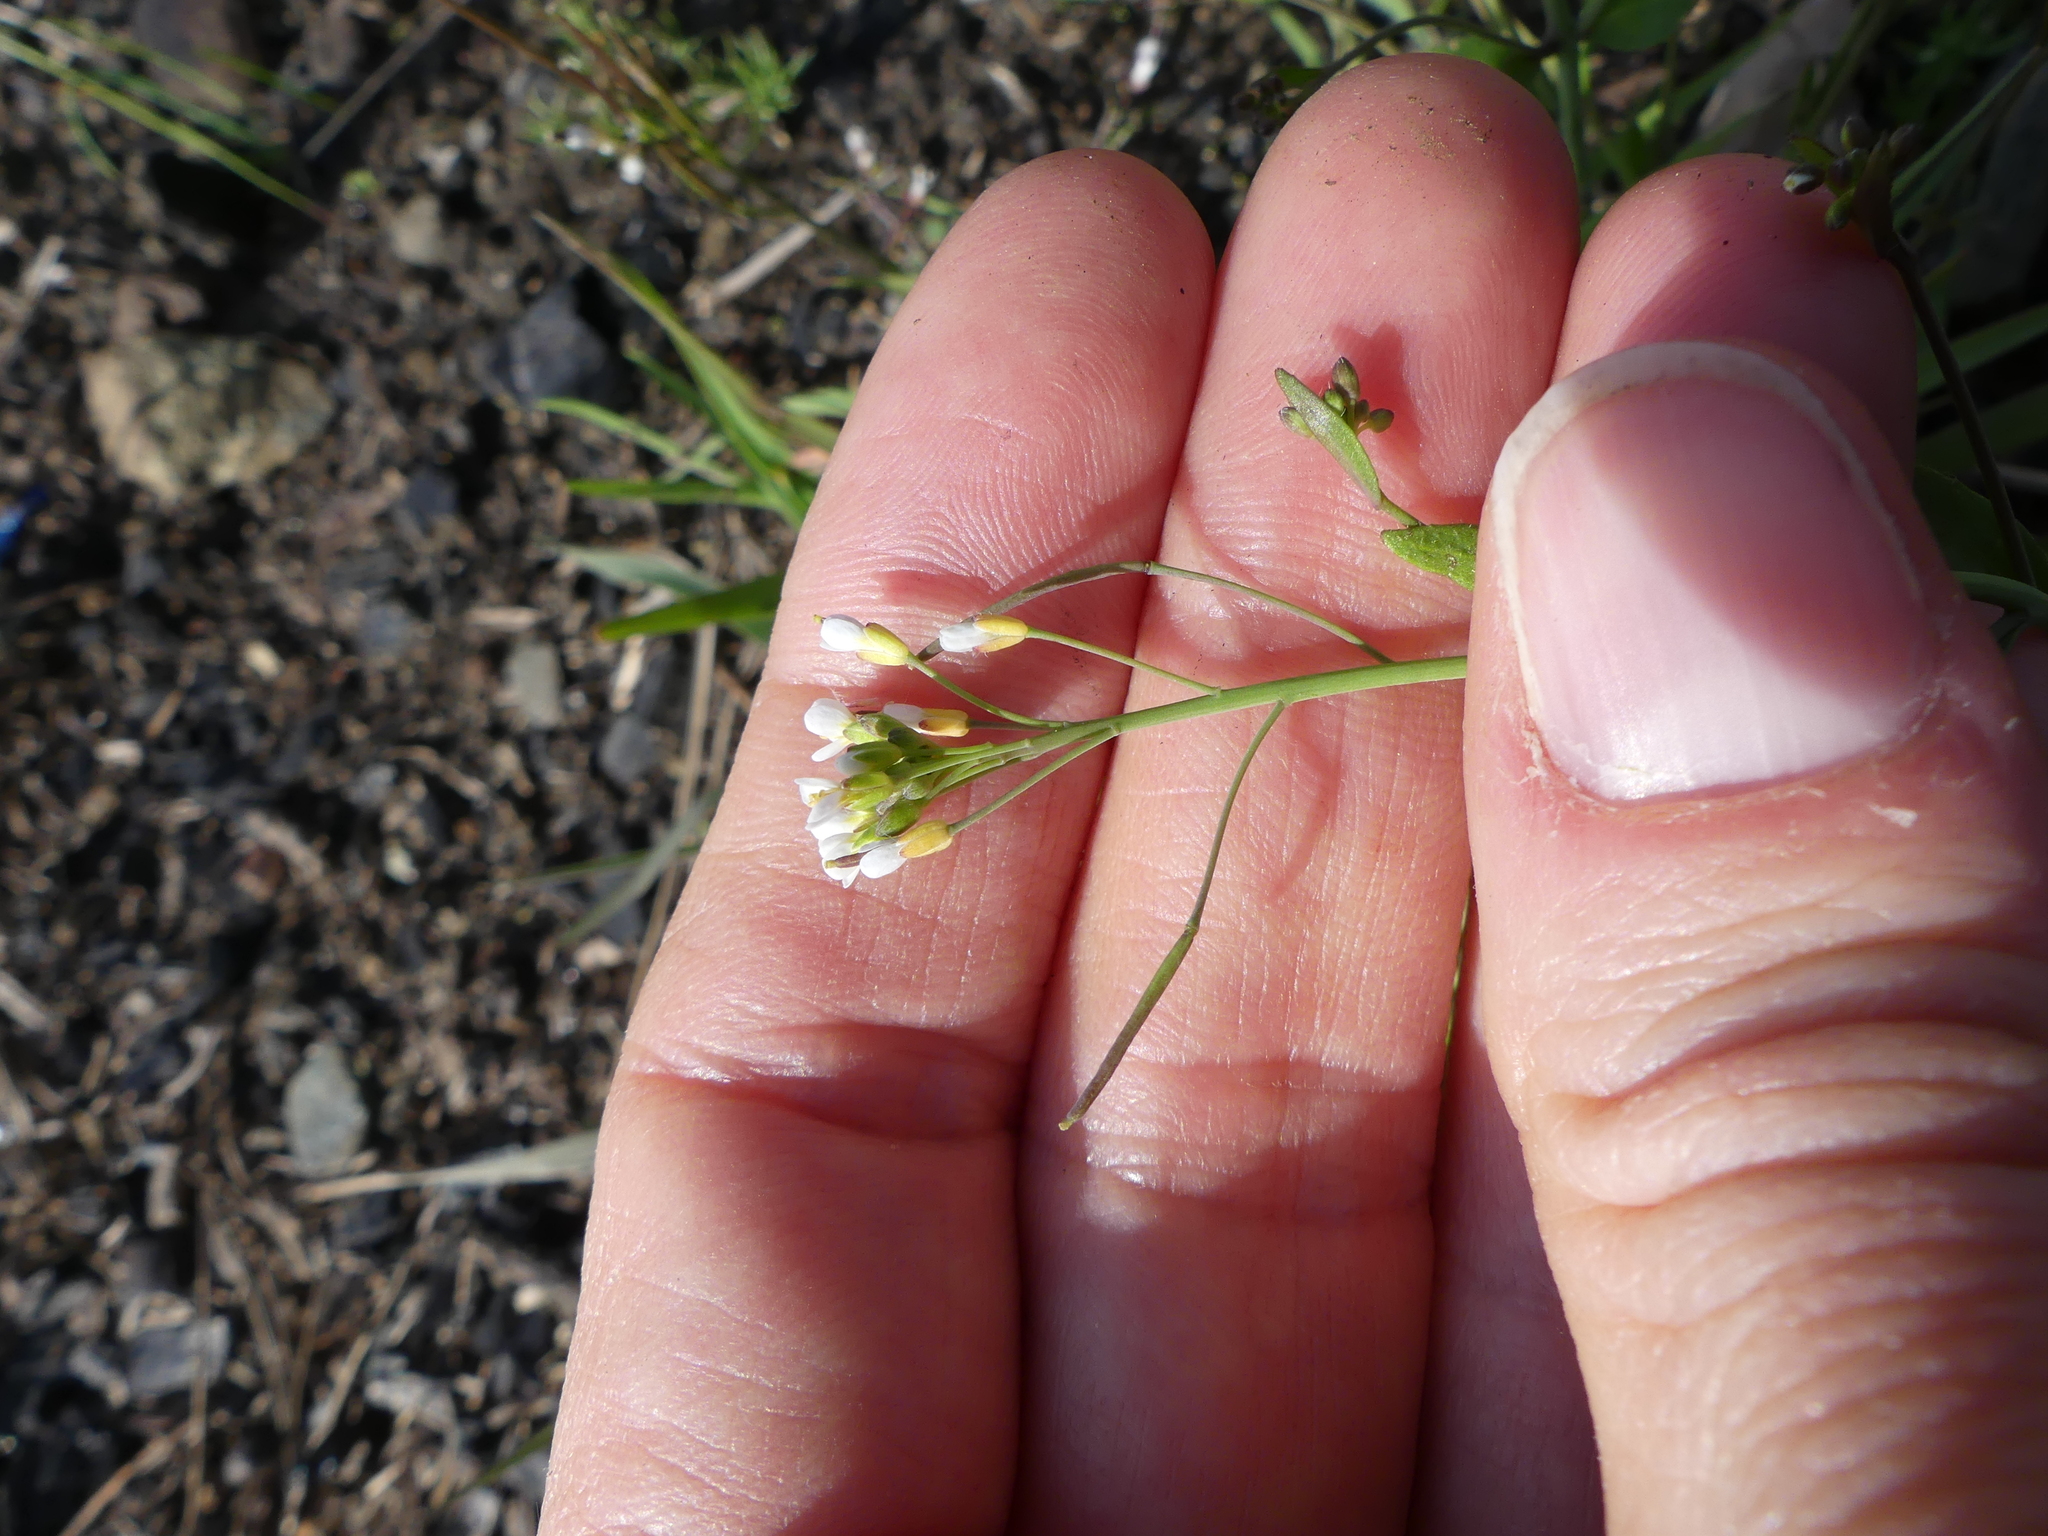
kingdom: Plantae
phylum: Tracheophyta
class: Magnoliopsida
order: Brassicales
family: Brassicaceae
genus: Arabidopsis
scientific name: Arabidopsis thaliana
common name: Thale cress
